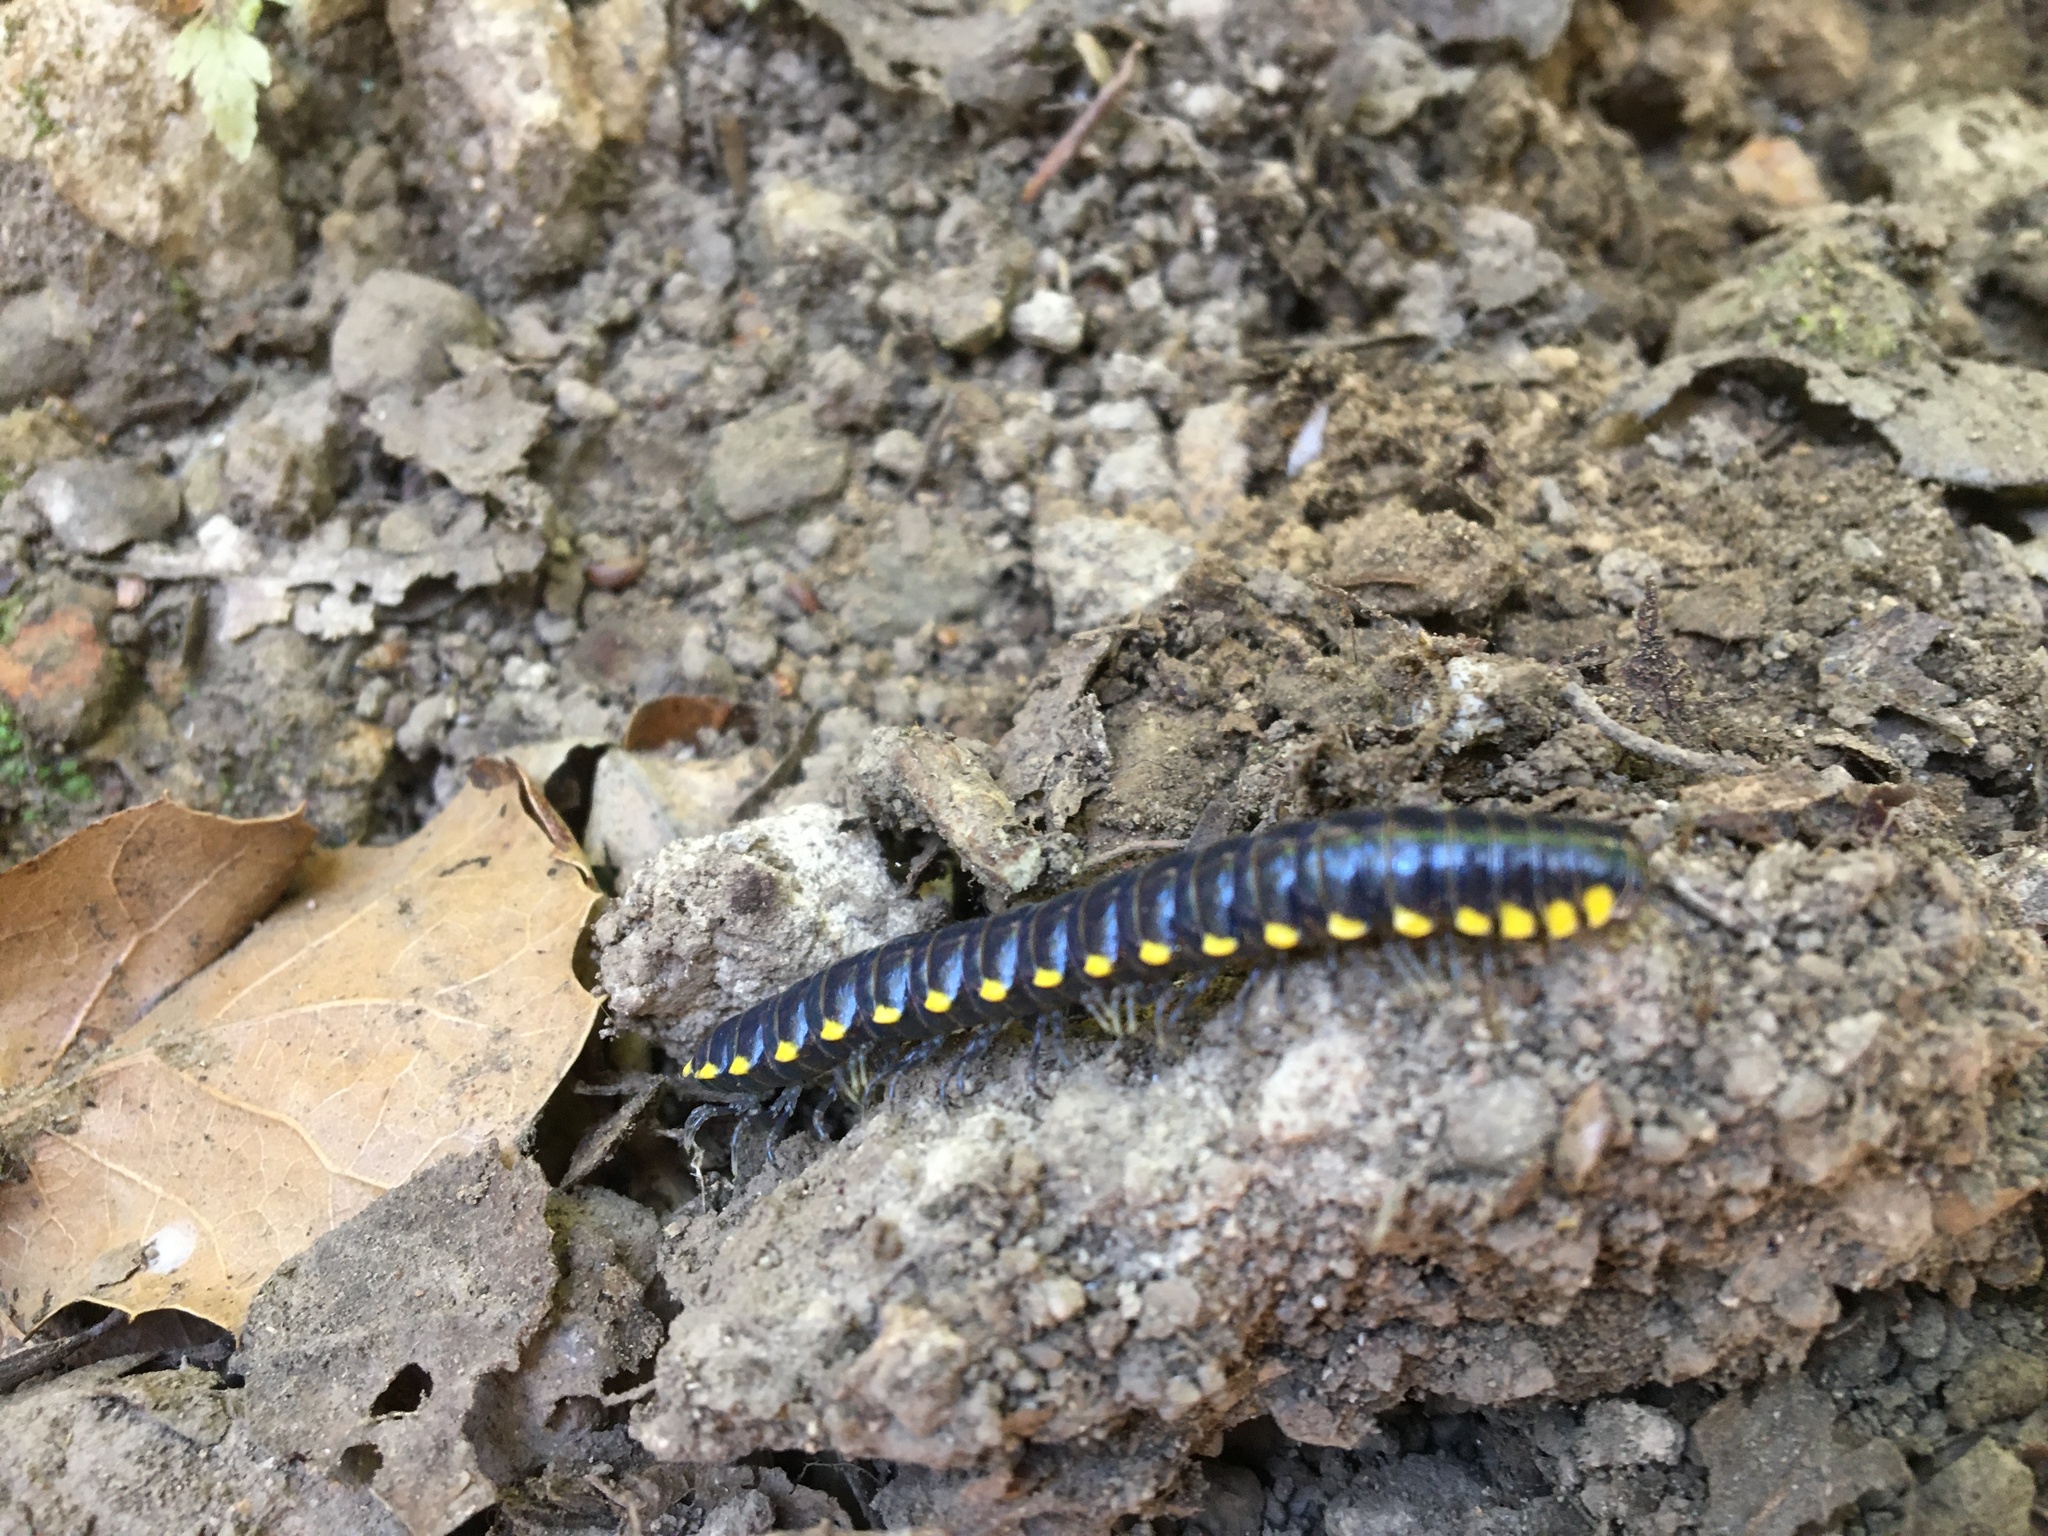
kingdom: Animalia
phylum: Arthropoda
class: Diplopoda
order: Polydesmida
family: Xystodesmidae
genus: Harpaphe
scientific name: Harpaphe haydeniana
